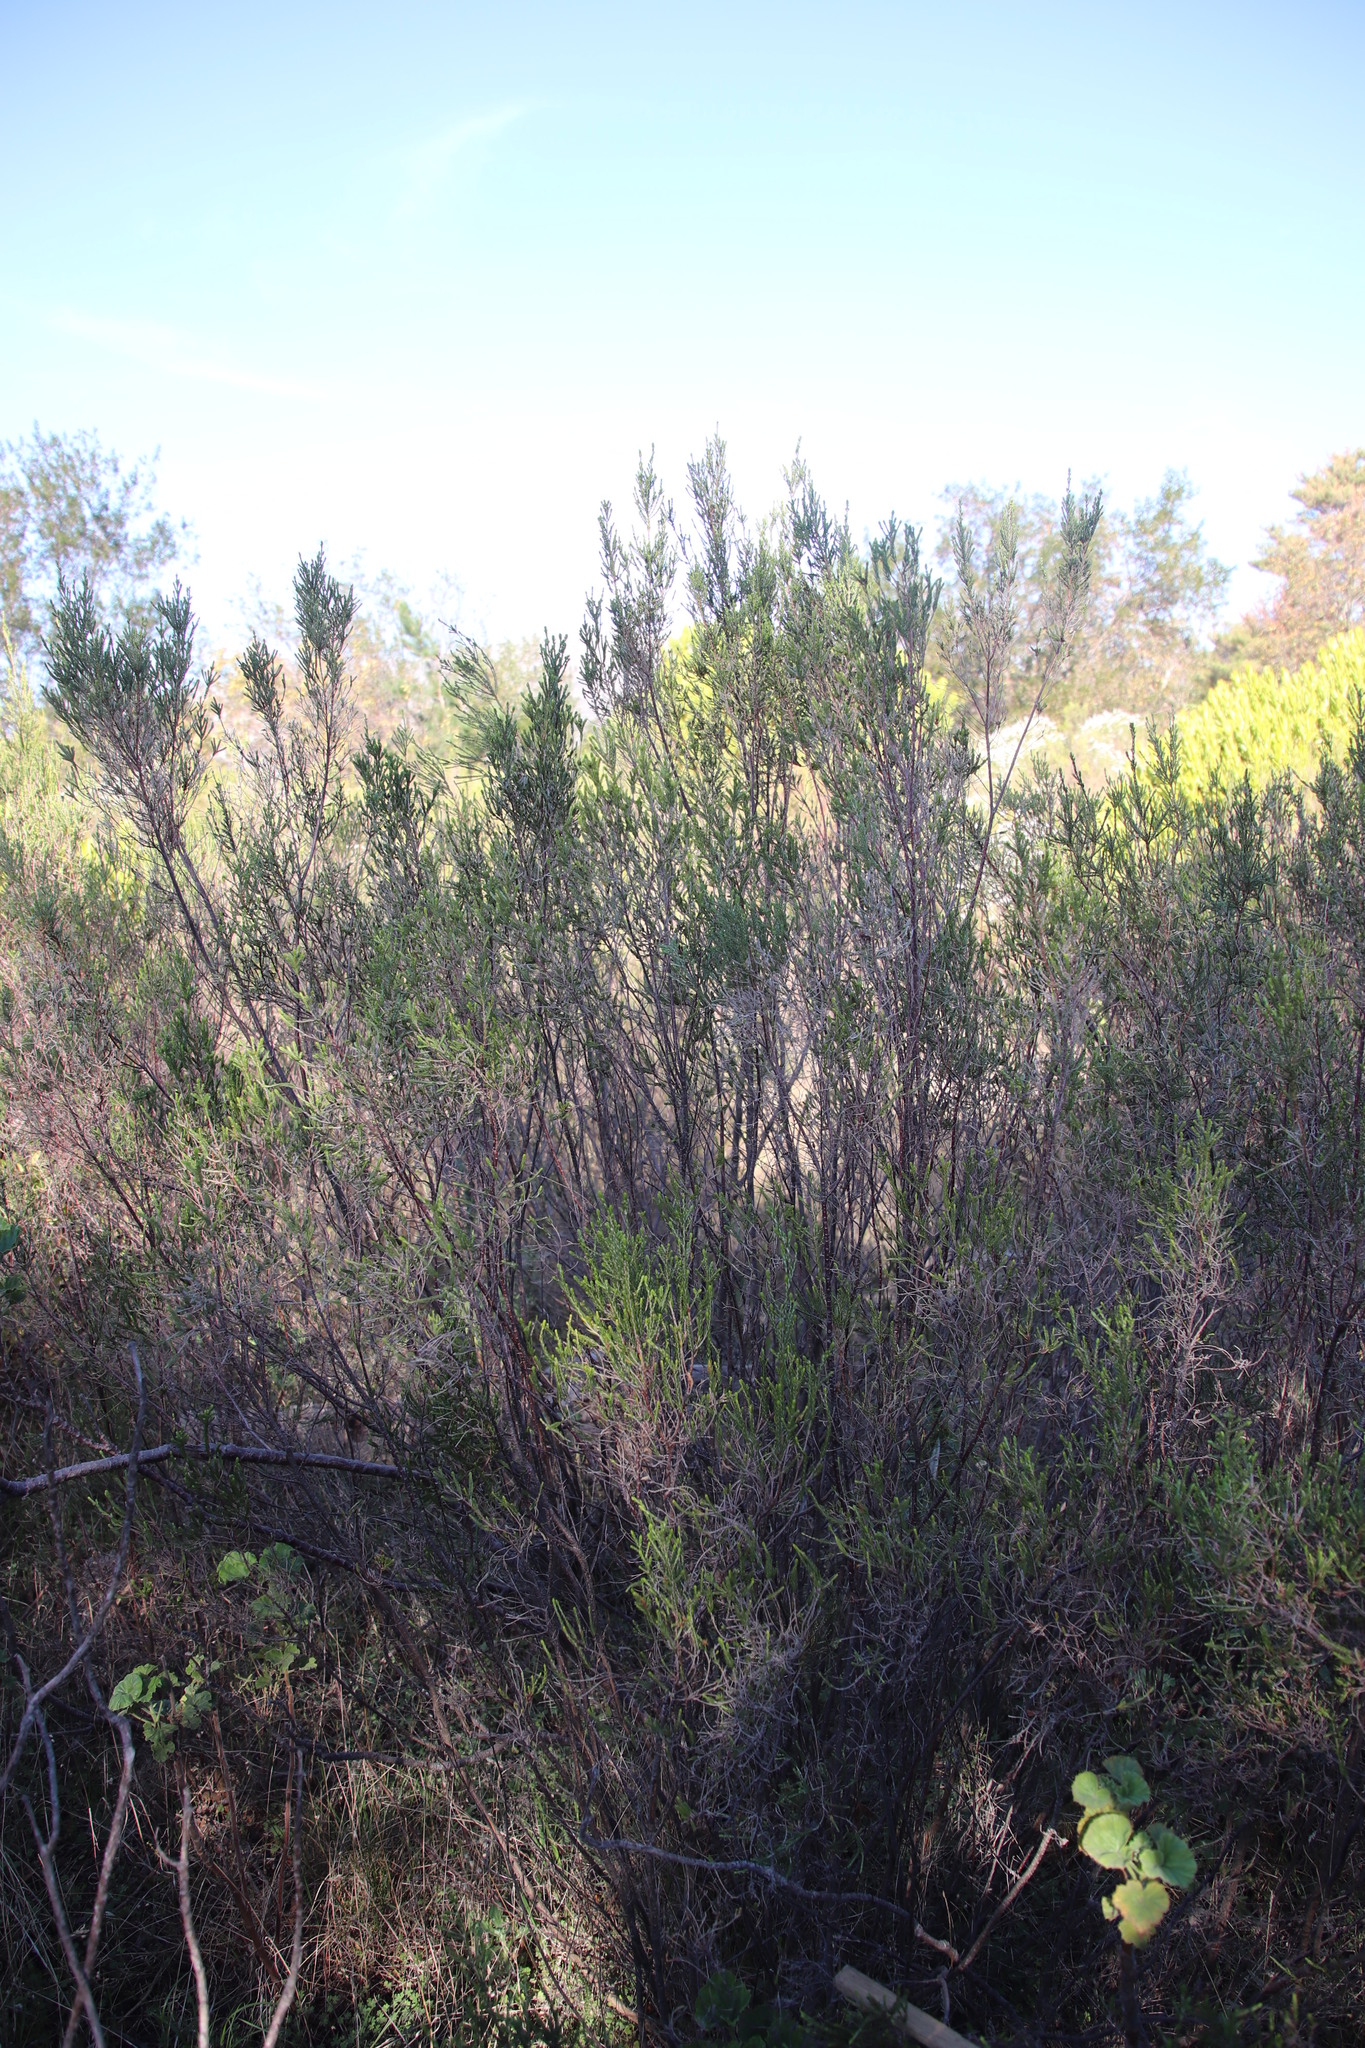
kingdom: Plantae
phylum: Tracheophyta
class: Magnoliopsida
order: Malvales
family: Thymelaeaceae
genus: Passerina
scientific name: Passerina corymbosa
